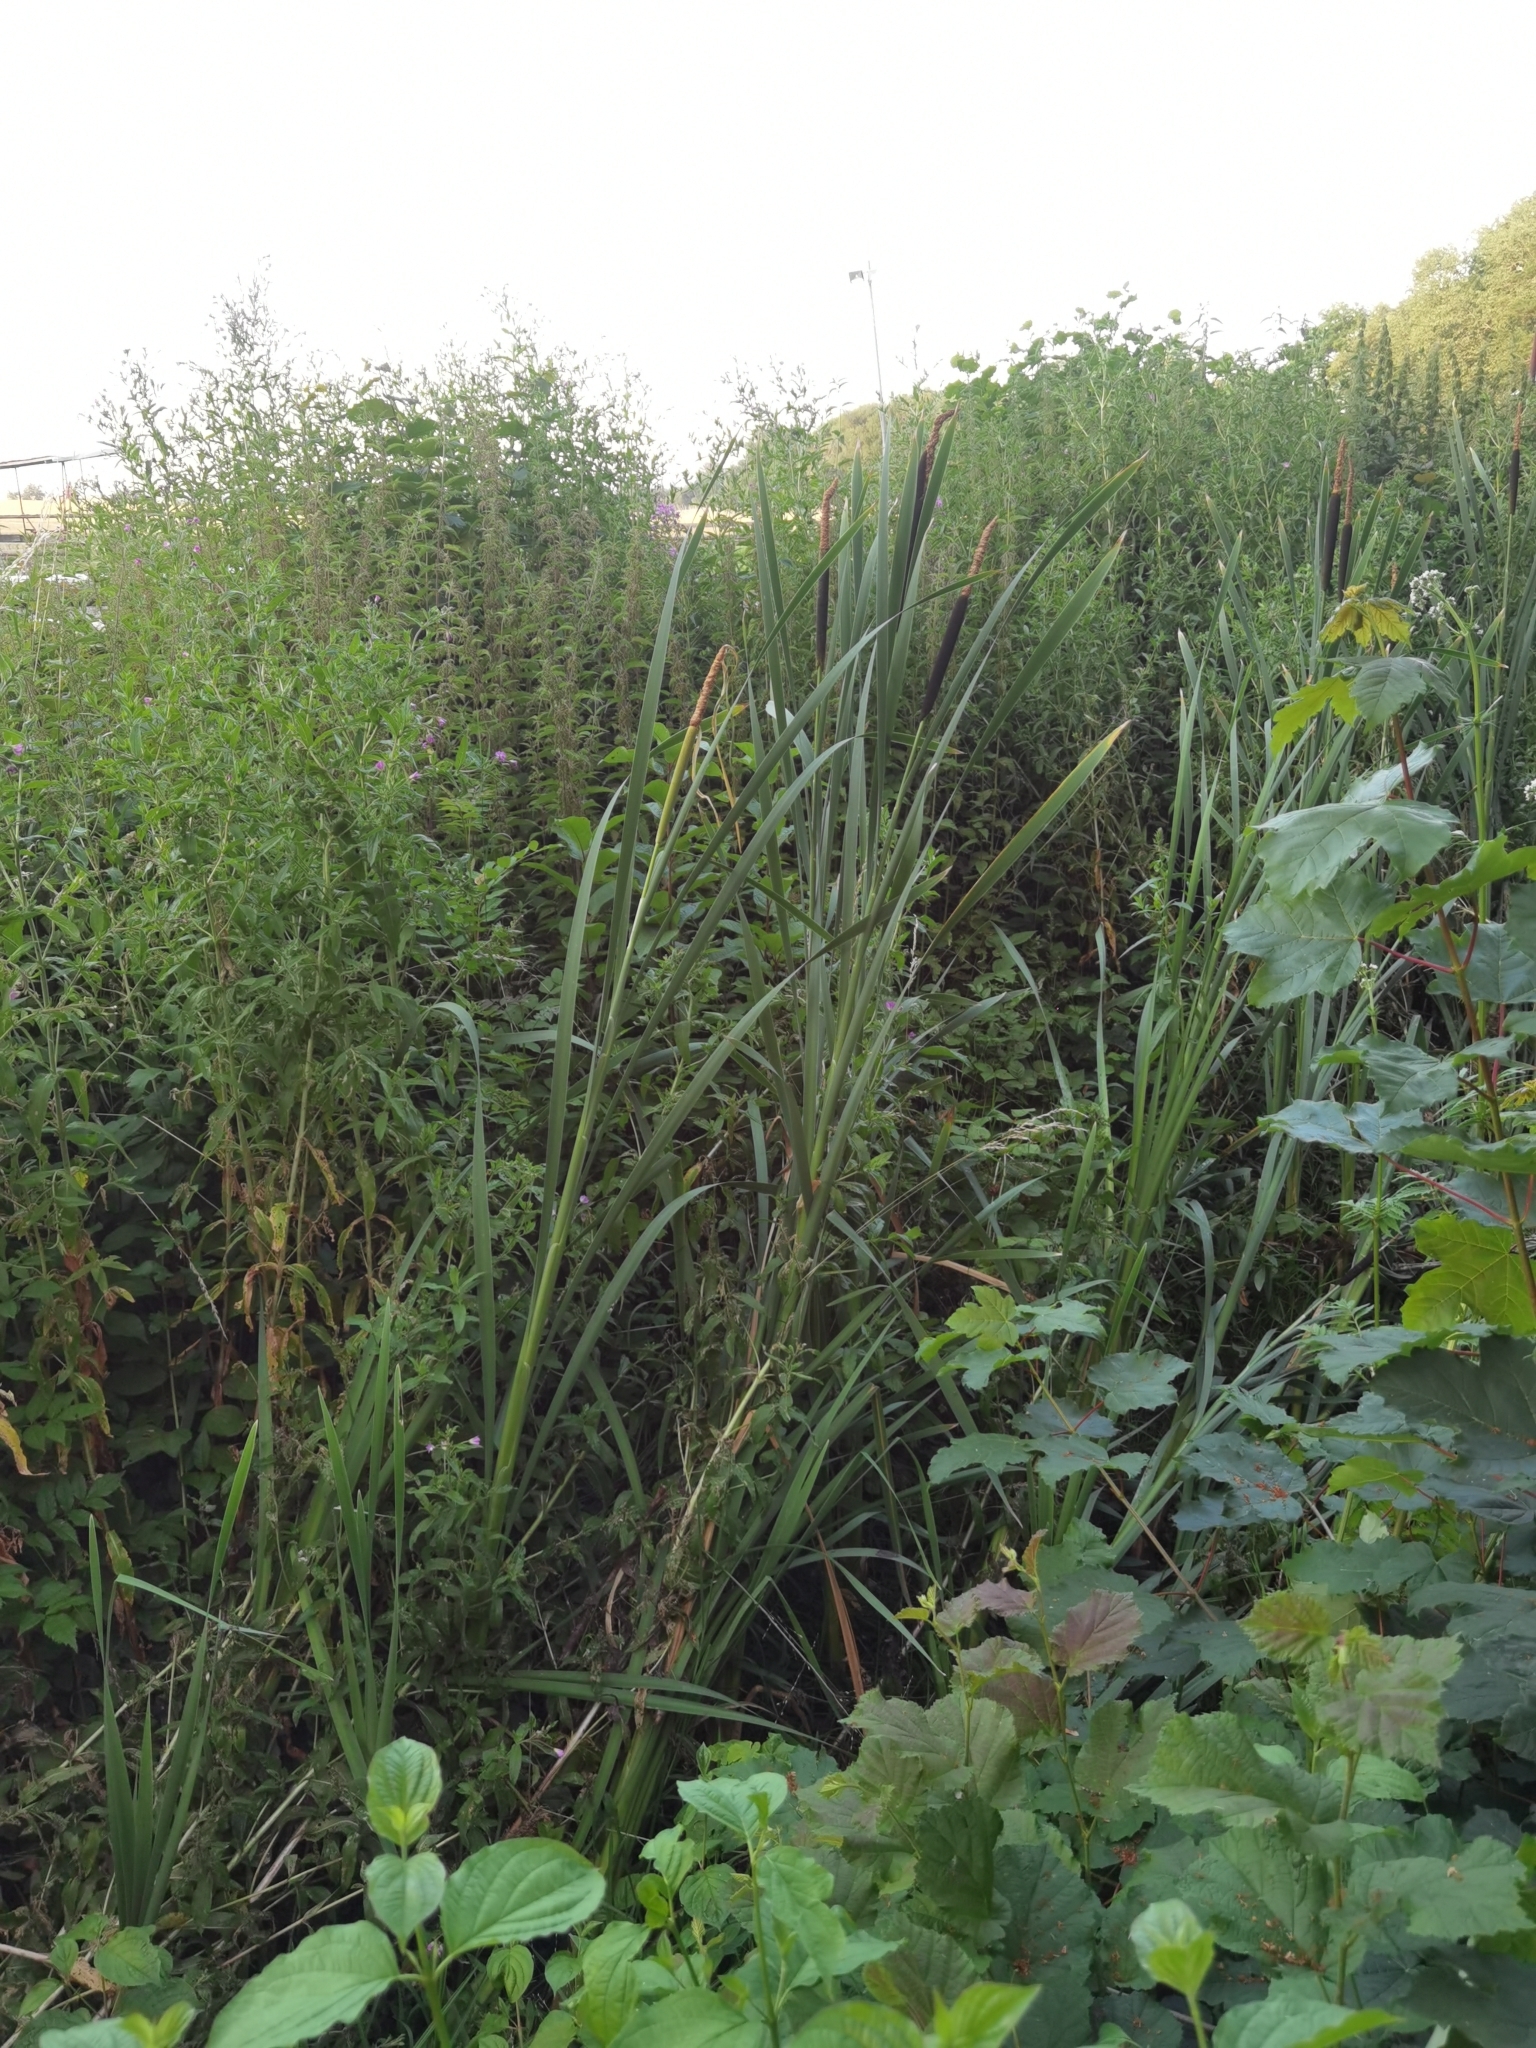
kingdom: Plantae
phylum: Tracheophyta
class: Liliopsida
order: Poales
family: Typhaceae
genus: Typha
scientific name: Typha latifolia
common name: Broadleaf cattail
